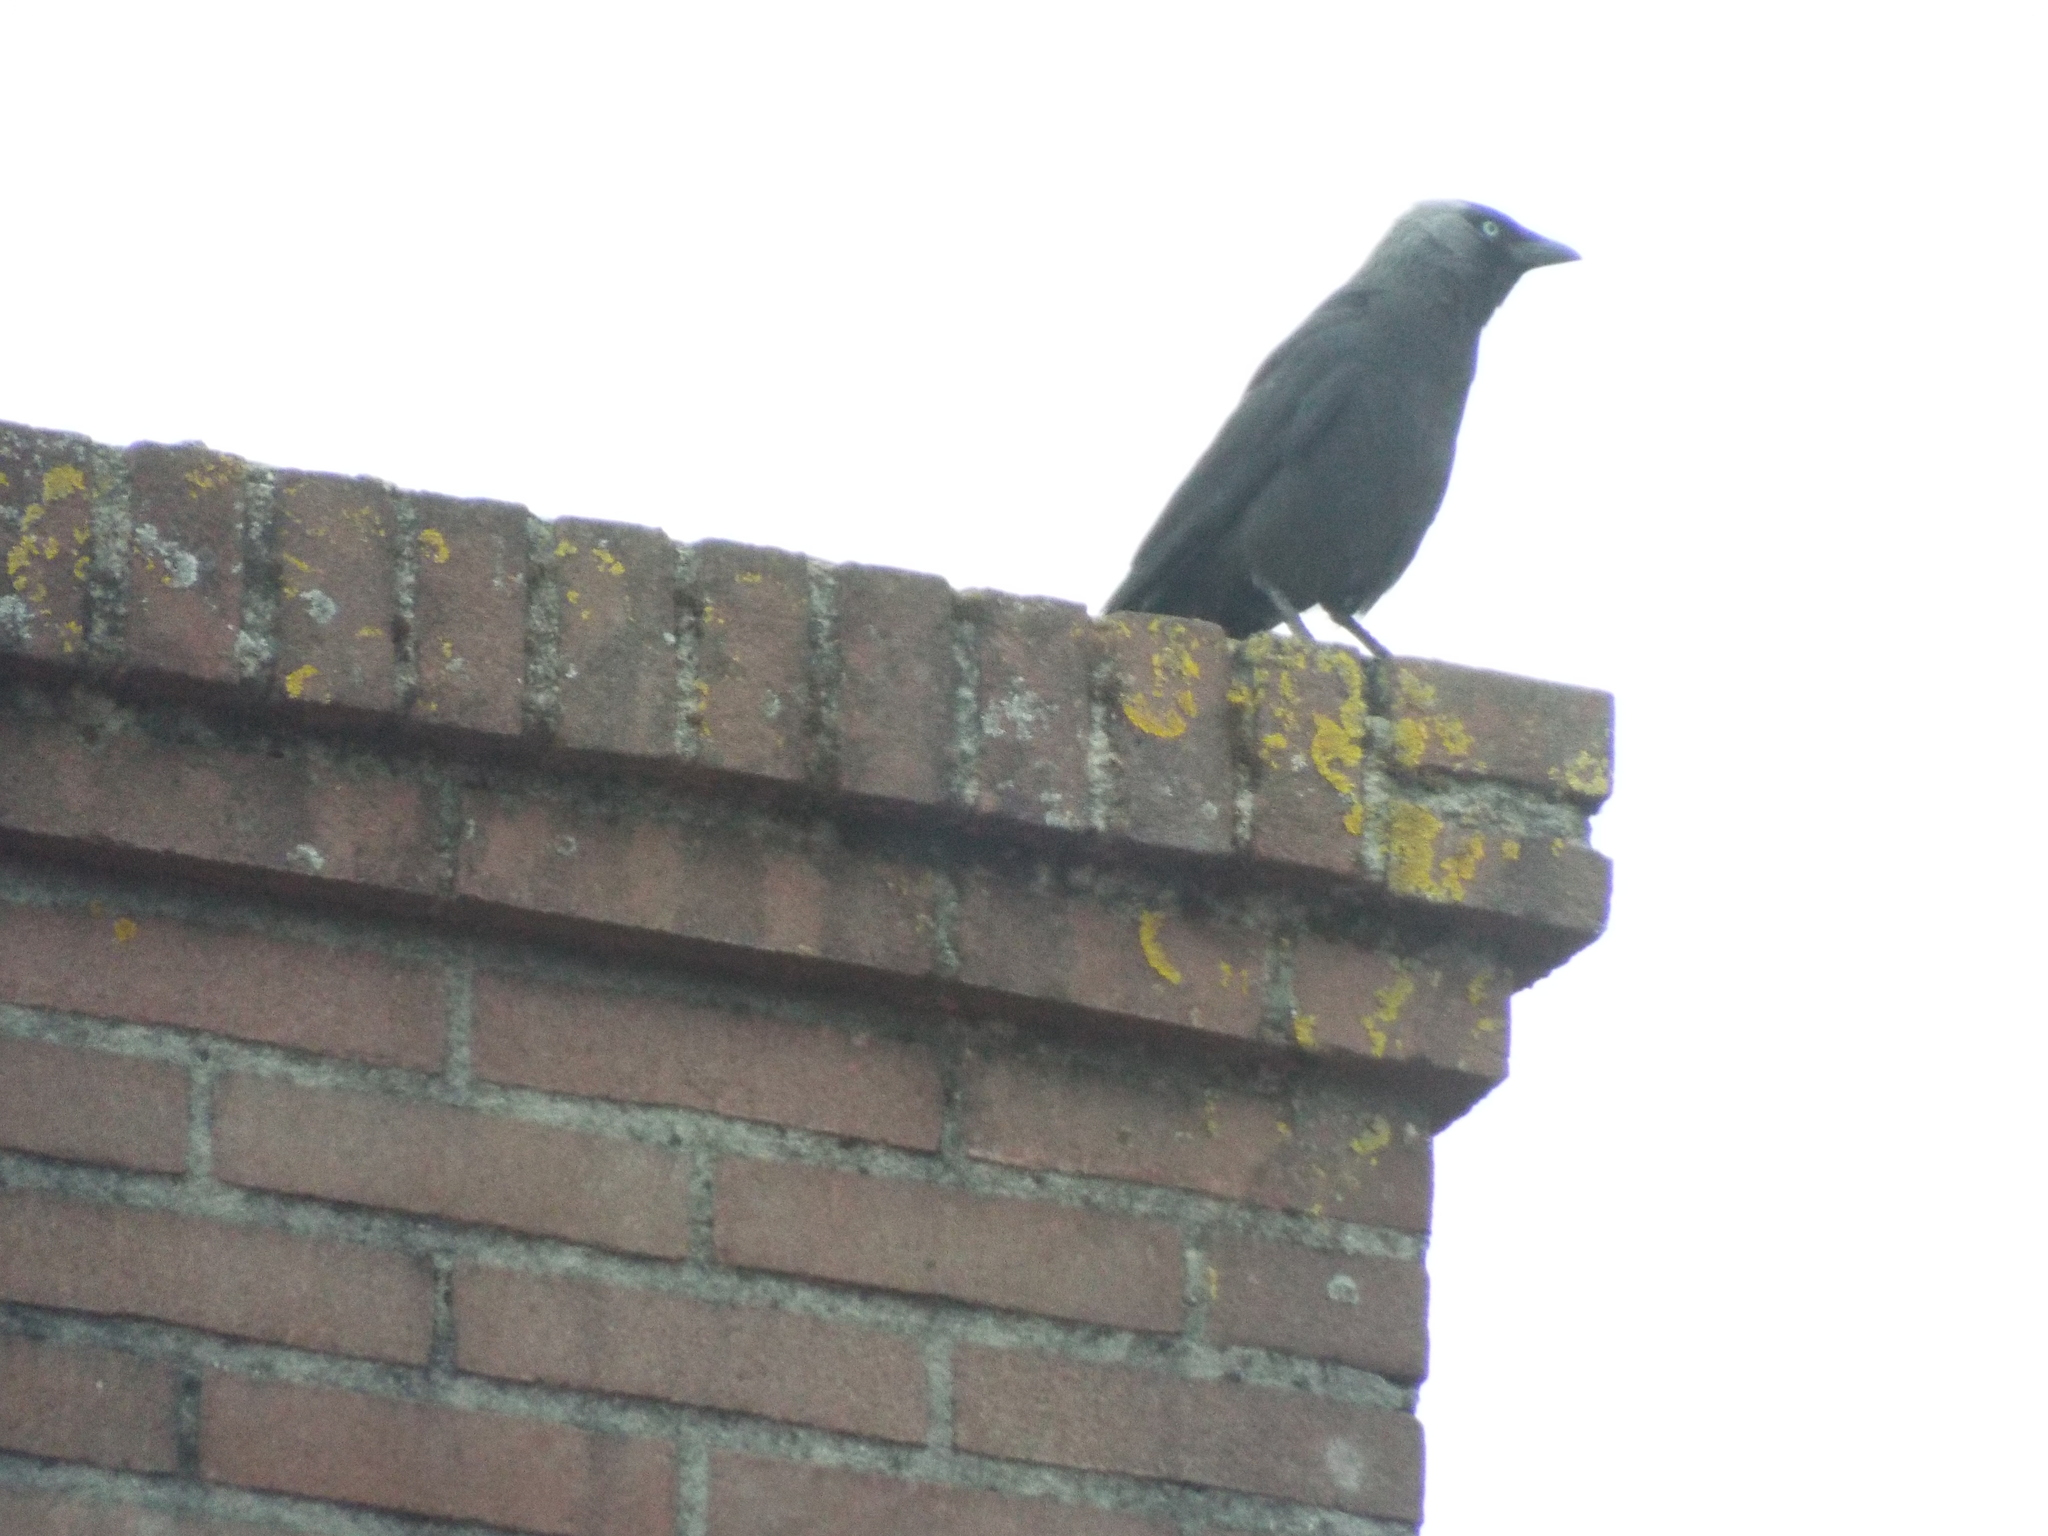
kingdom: Animalia
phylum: Chordata
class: Aves
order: Passeriformes
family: Corvidae
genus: Coloeus
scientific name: Coloeus monedula
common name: Western jackdaw
